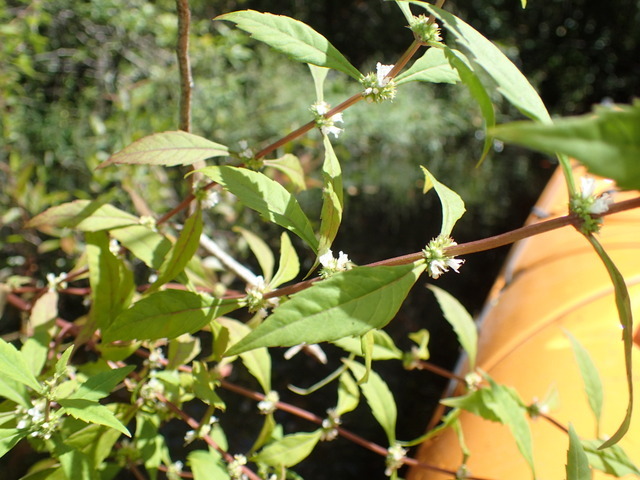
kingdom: Plantae
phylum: Tracheophyta
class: Magnoliopsida
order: Lamiales
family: Lamiaceae
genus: Lycopus
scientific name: Lycopus rubellus
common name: Stalked bugleweed
